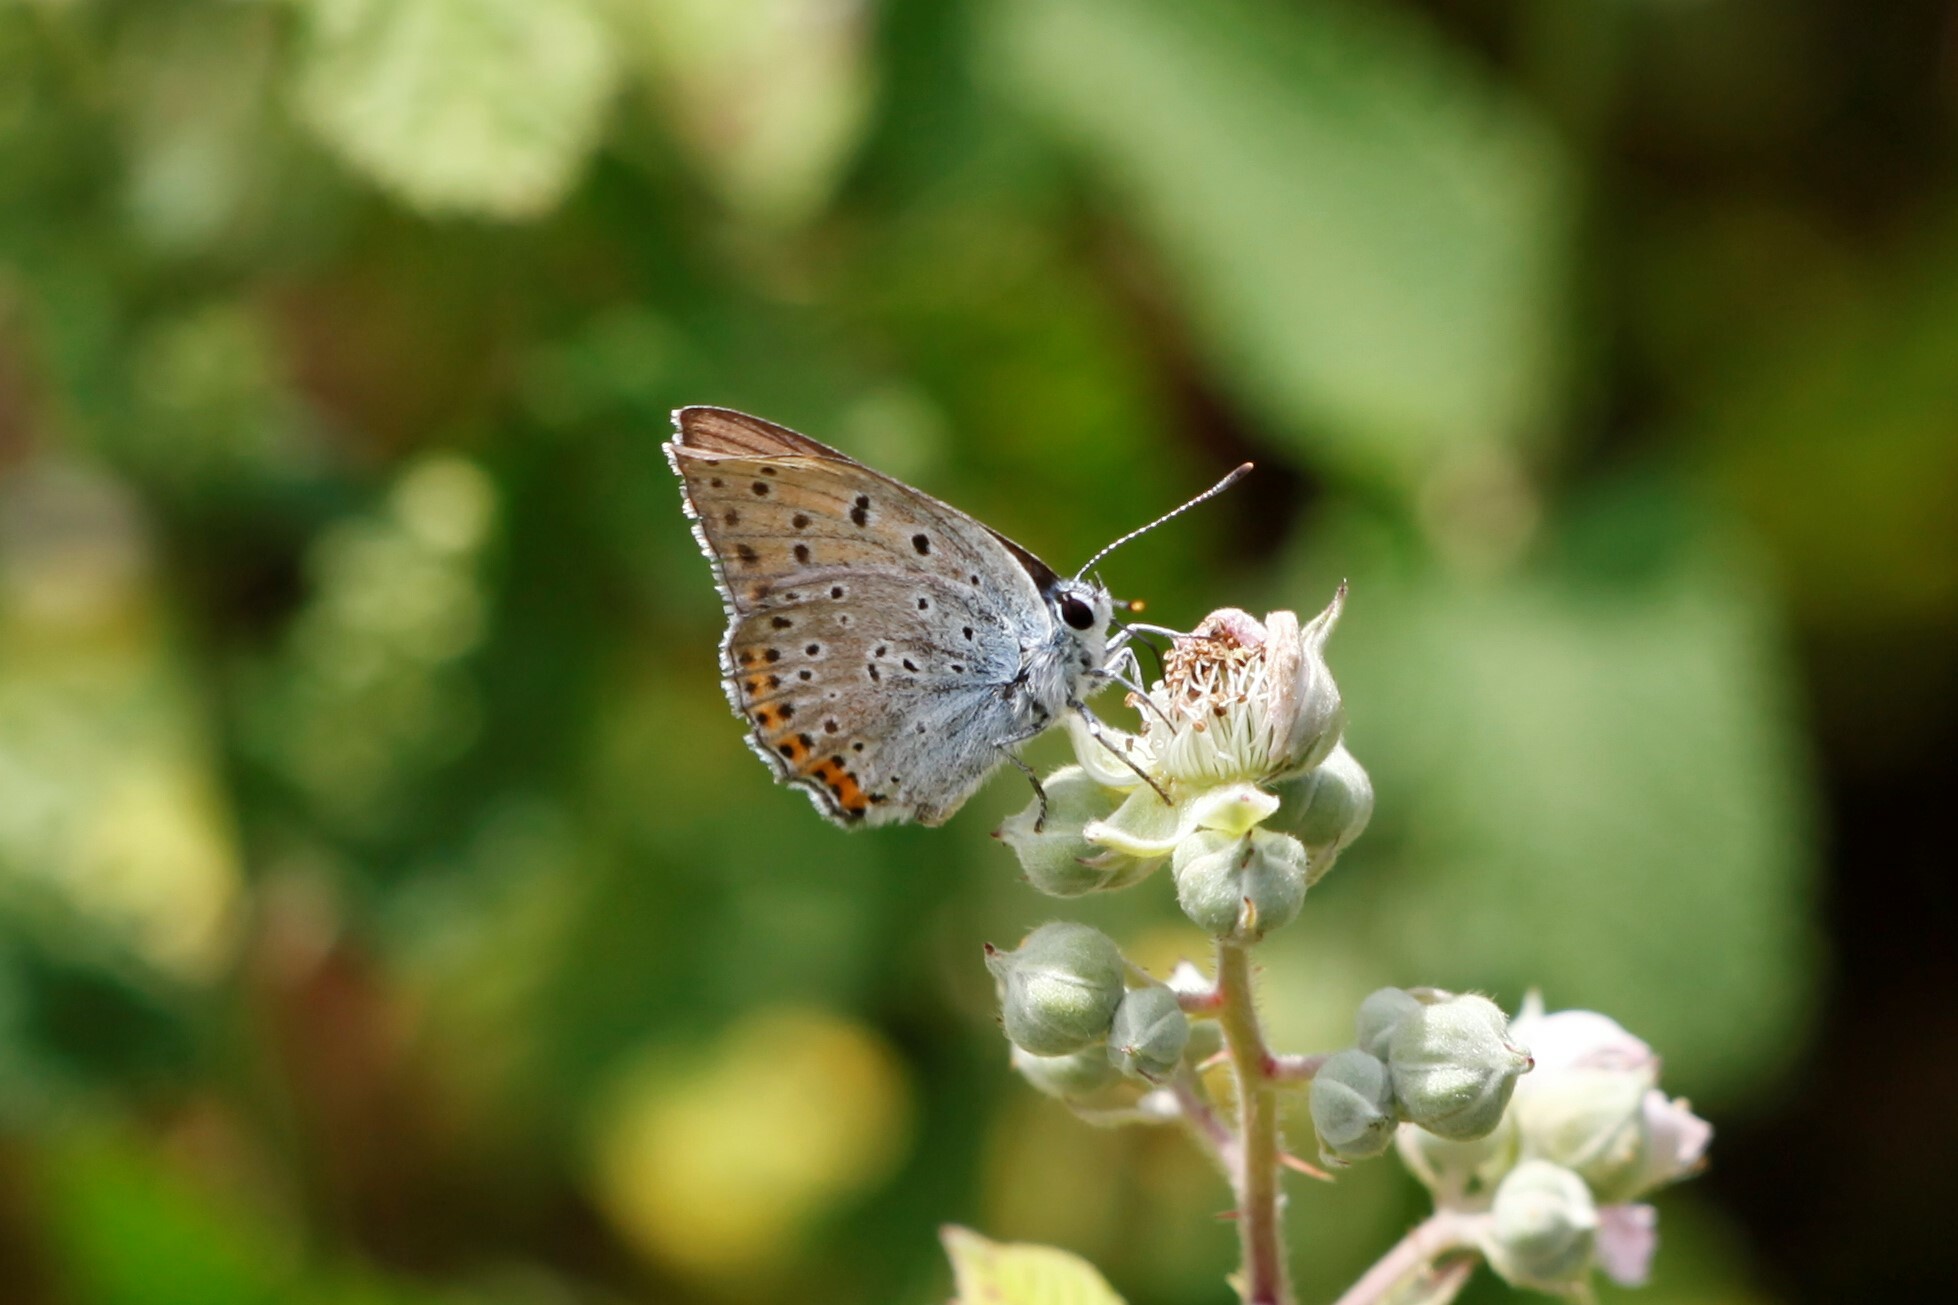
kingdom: Animalia
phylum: Arthropoda
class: Insecta
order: Lepidoptera
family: Lycaenidae
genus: Lycaena
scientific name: Lycaena alciphron
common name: Purple-shot copper
